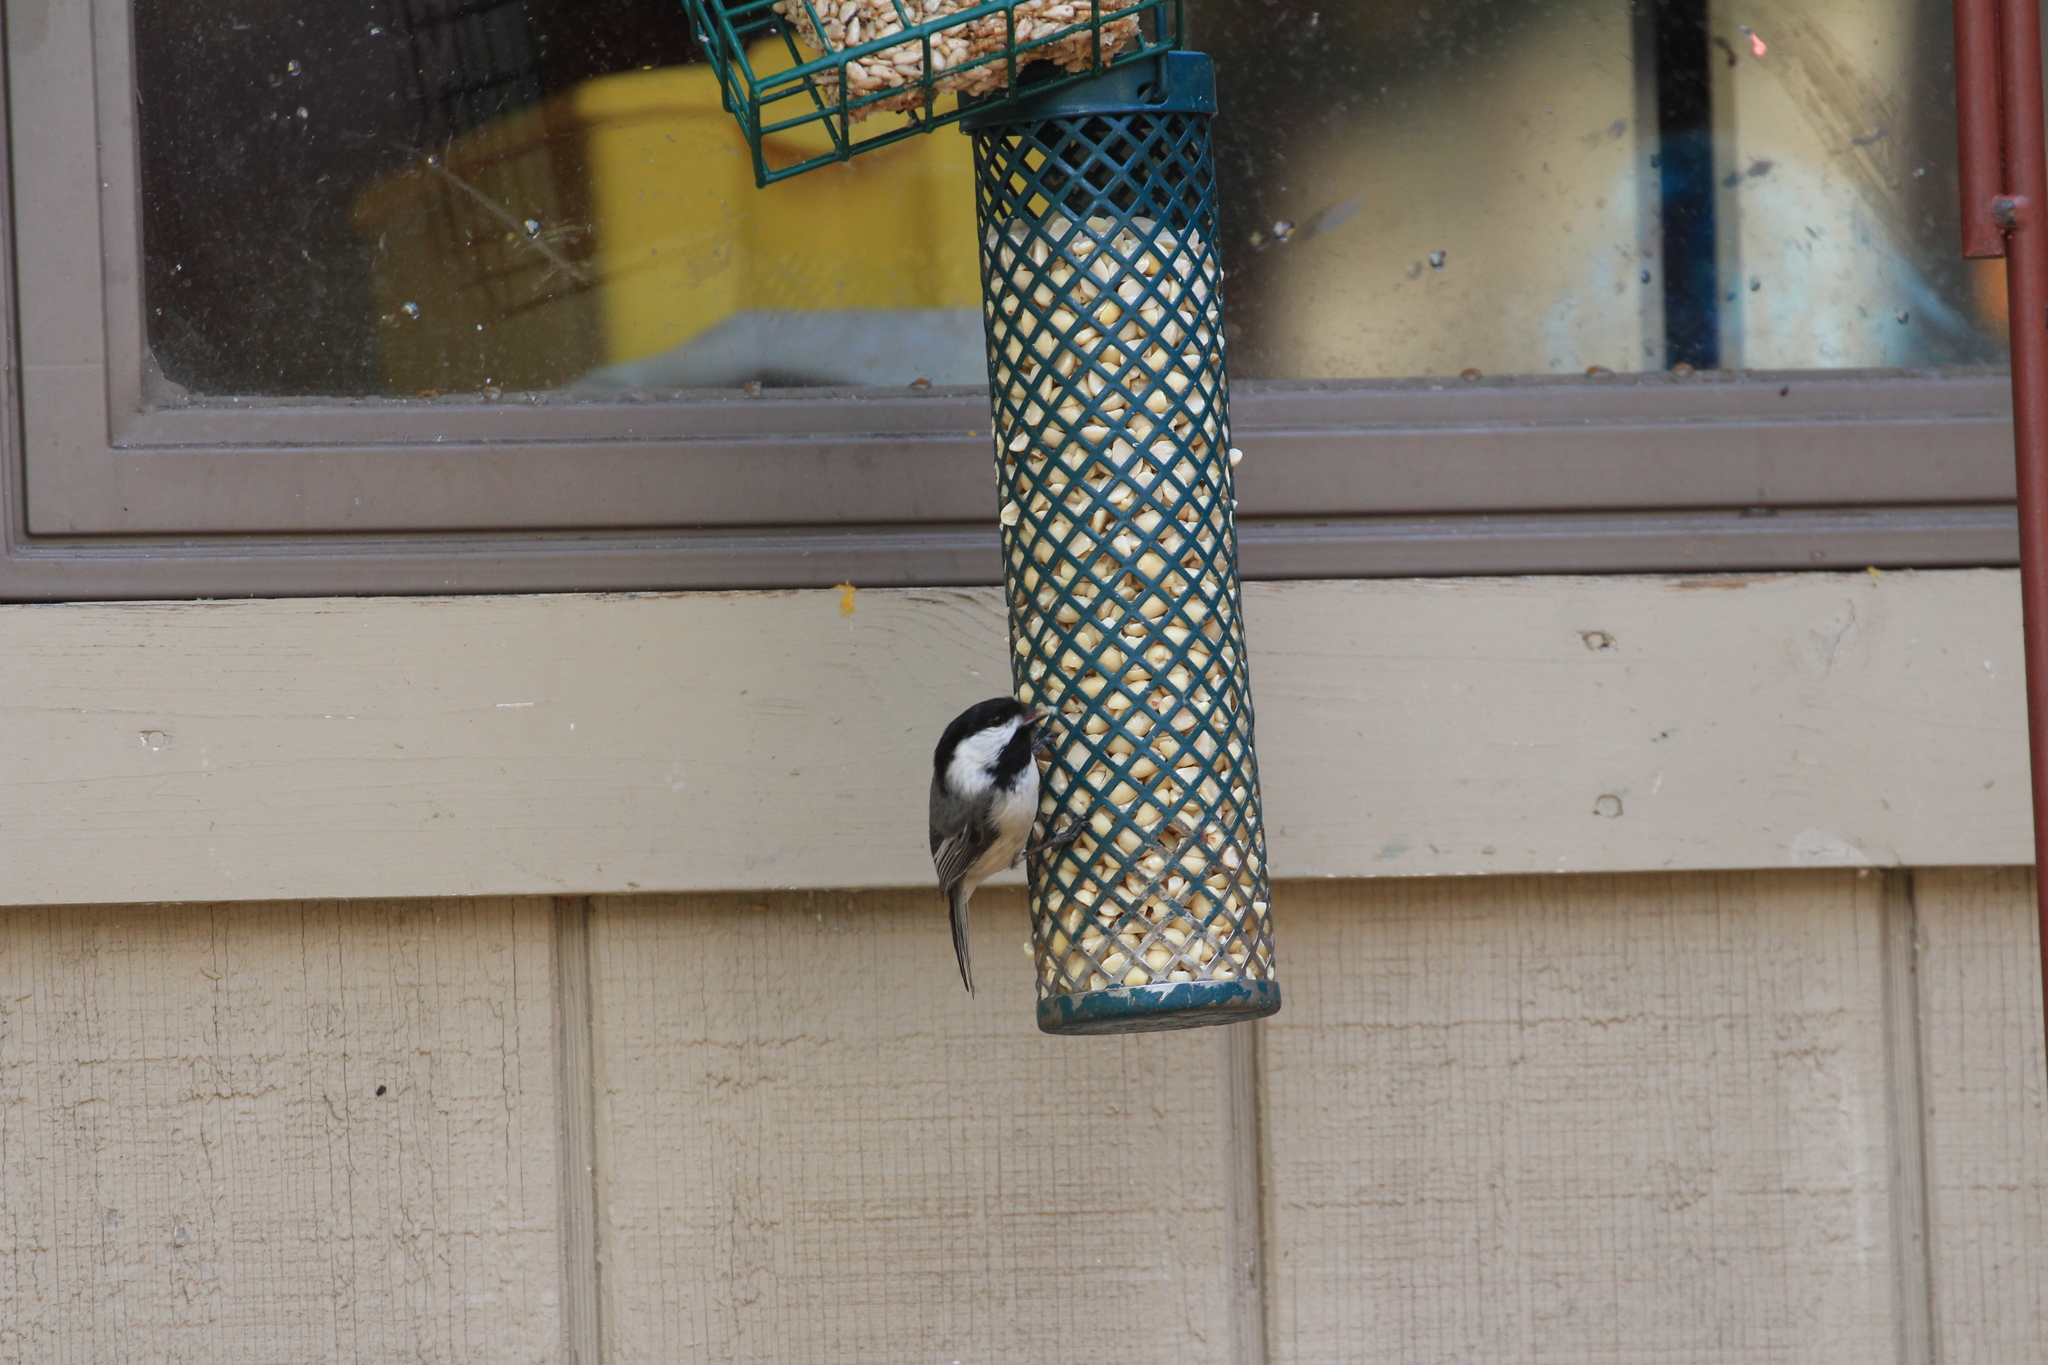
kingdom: Animalia
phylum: Chordata
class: Aves
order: Passeriformes
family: Paridae
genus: Poecile
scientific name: Poecile atricapillus
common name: Black-capped chickadee
